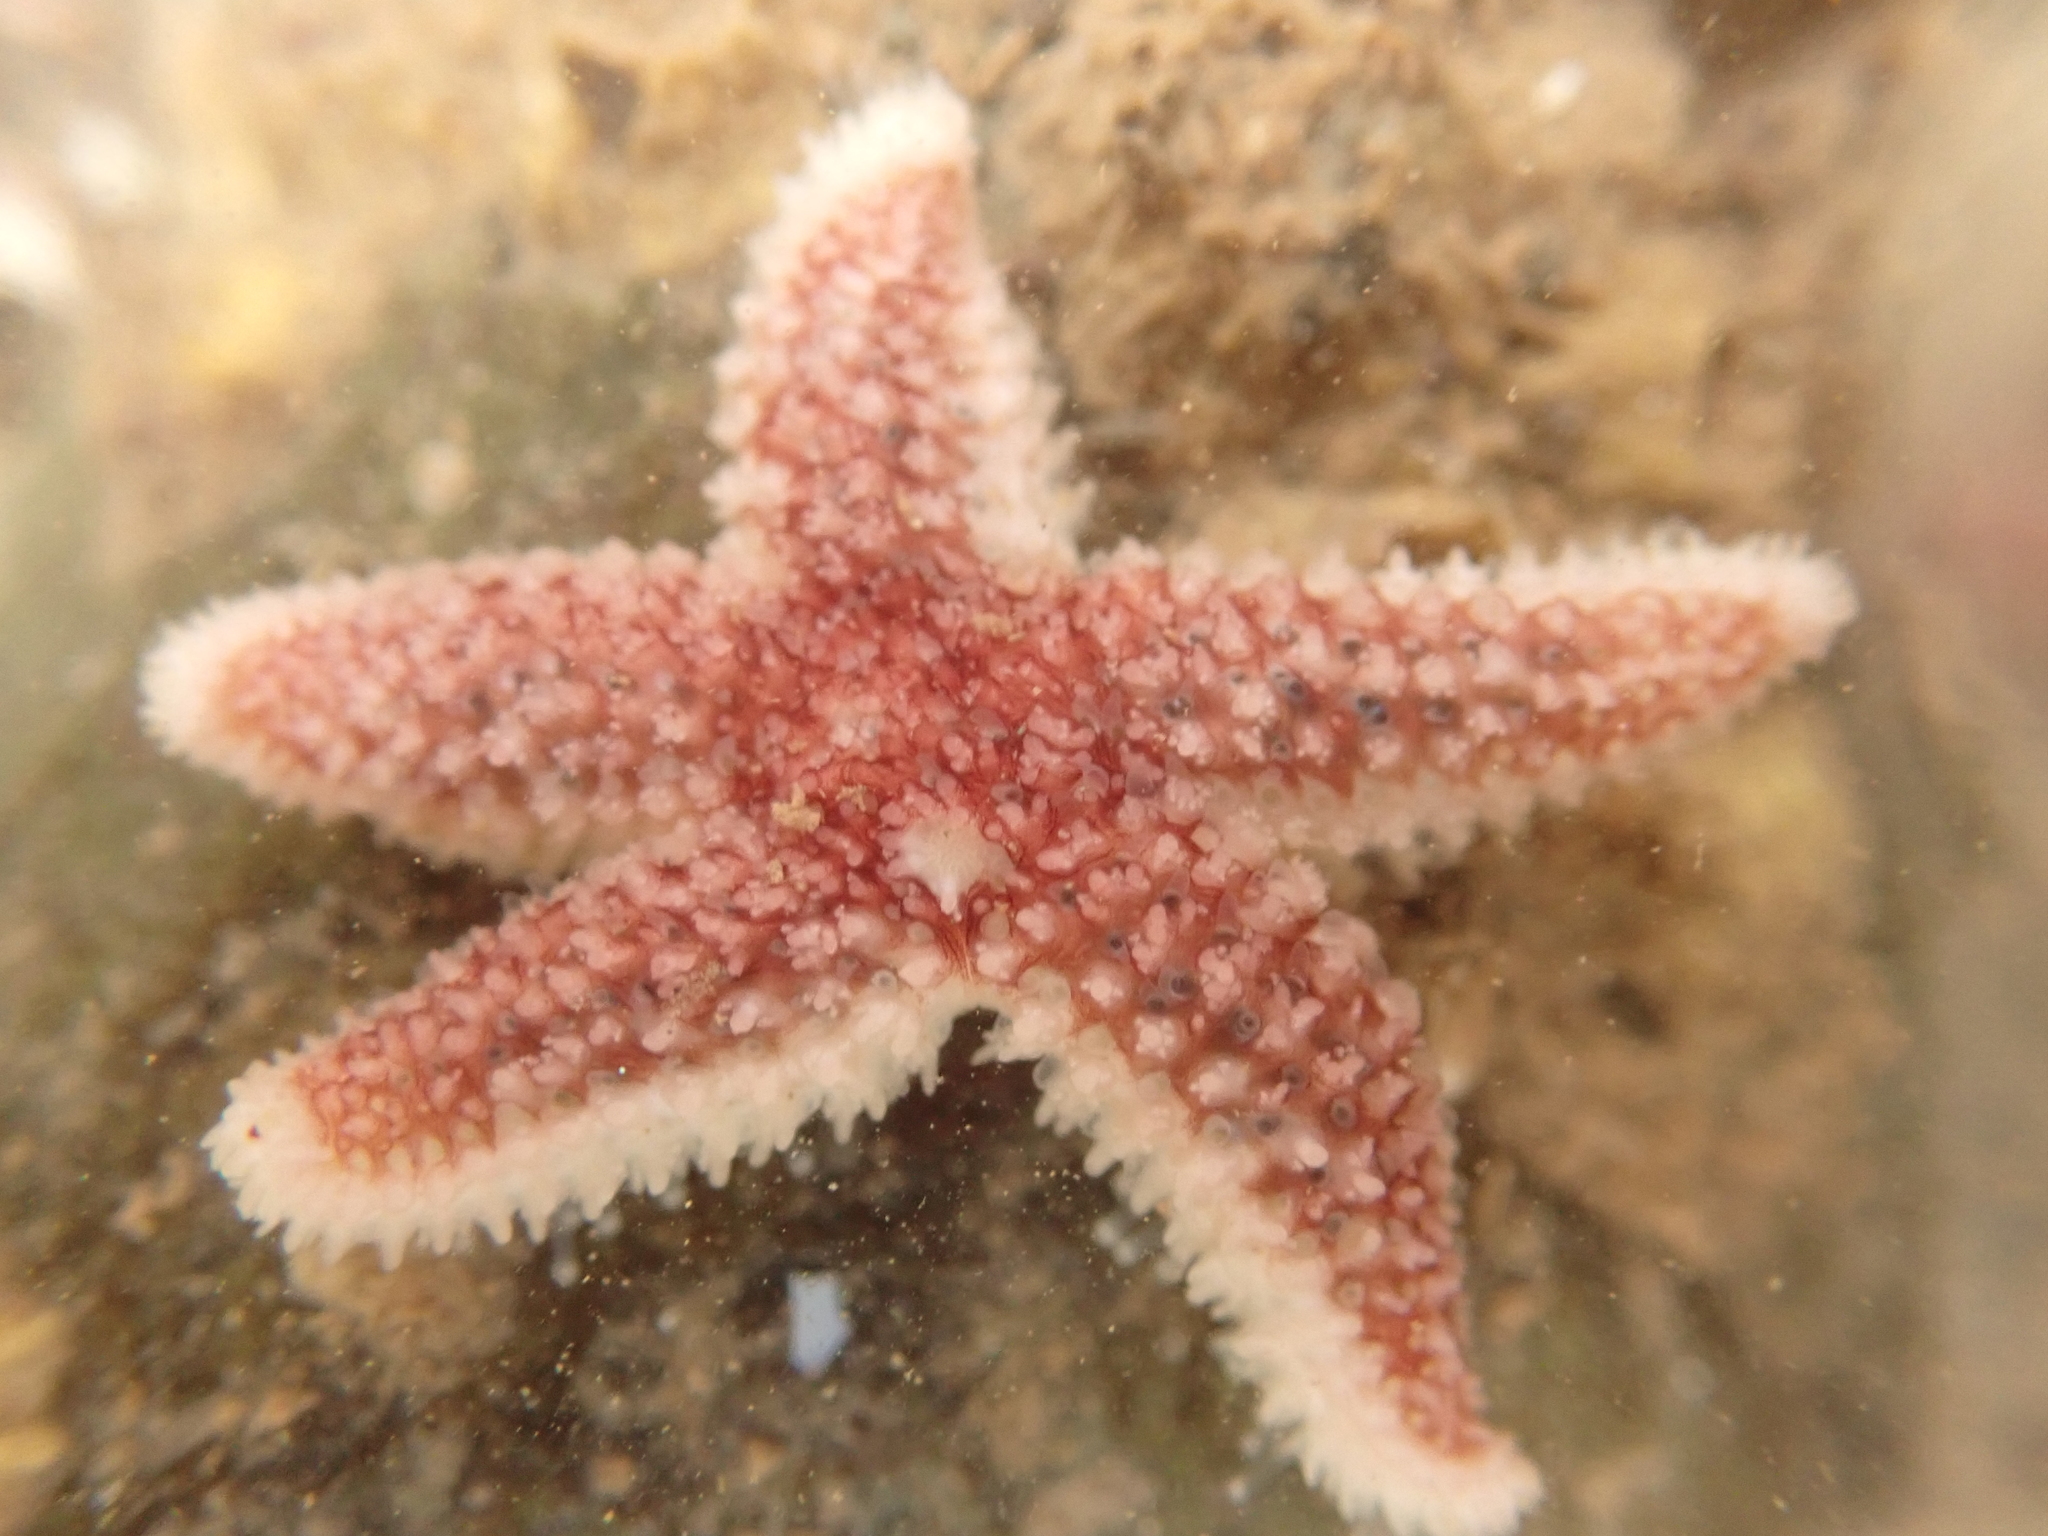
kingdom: Animalia
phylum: Echinodermata
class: Asteroidea
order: Forcipulatida
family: Asteriidae
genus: Asterias
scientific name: Asterias rubens
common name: Common starfish
